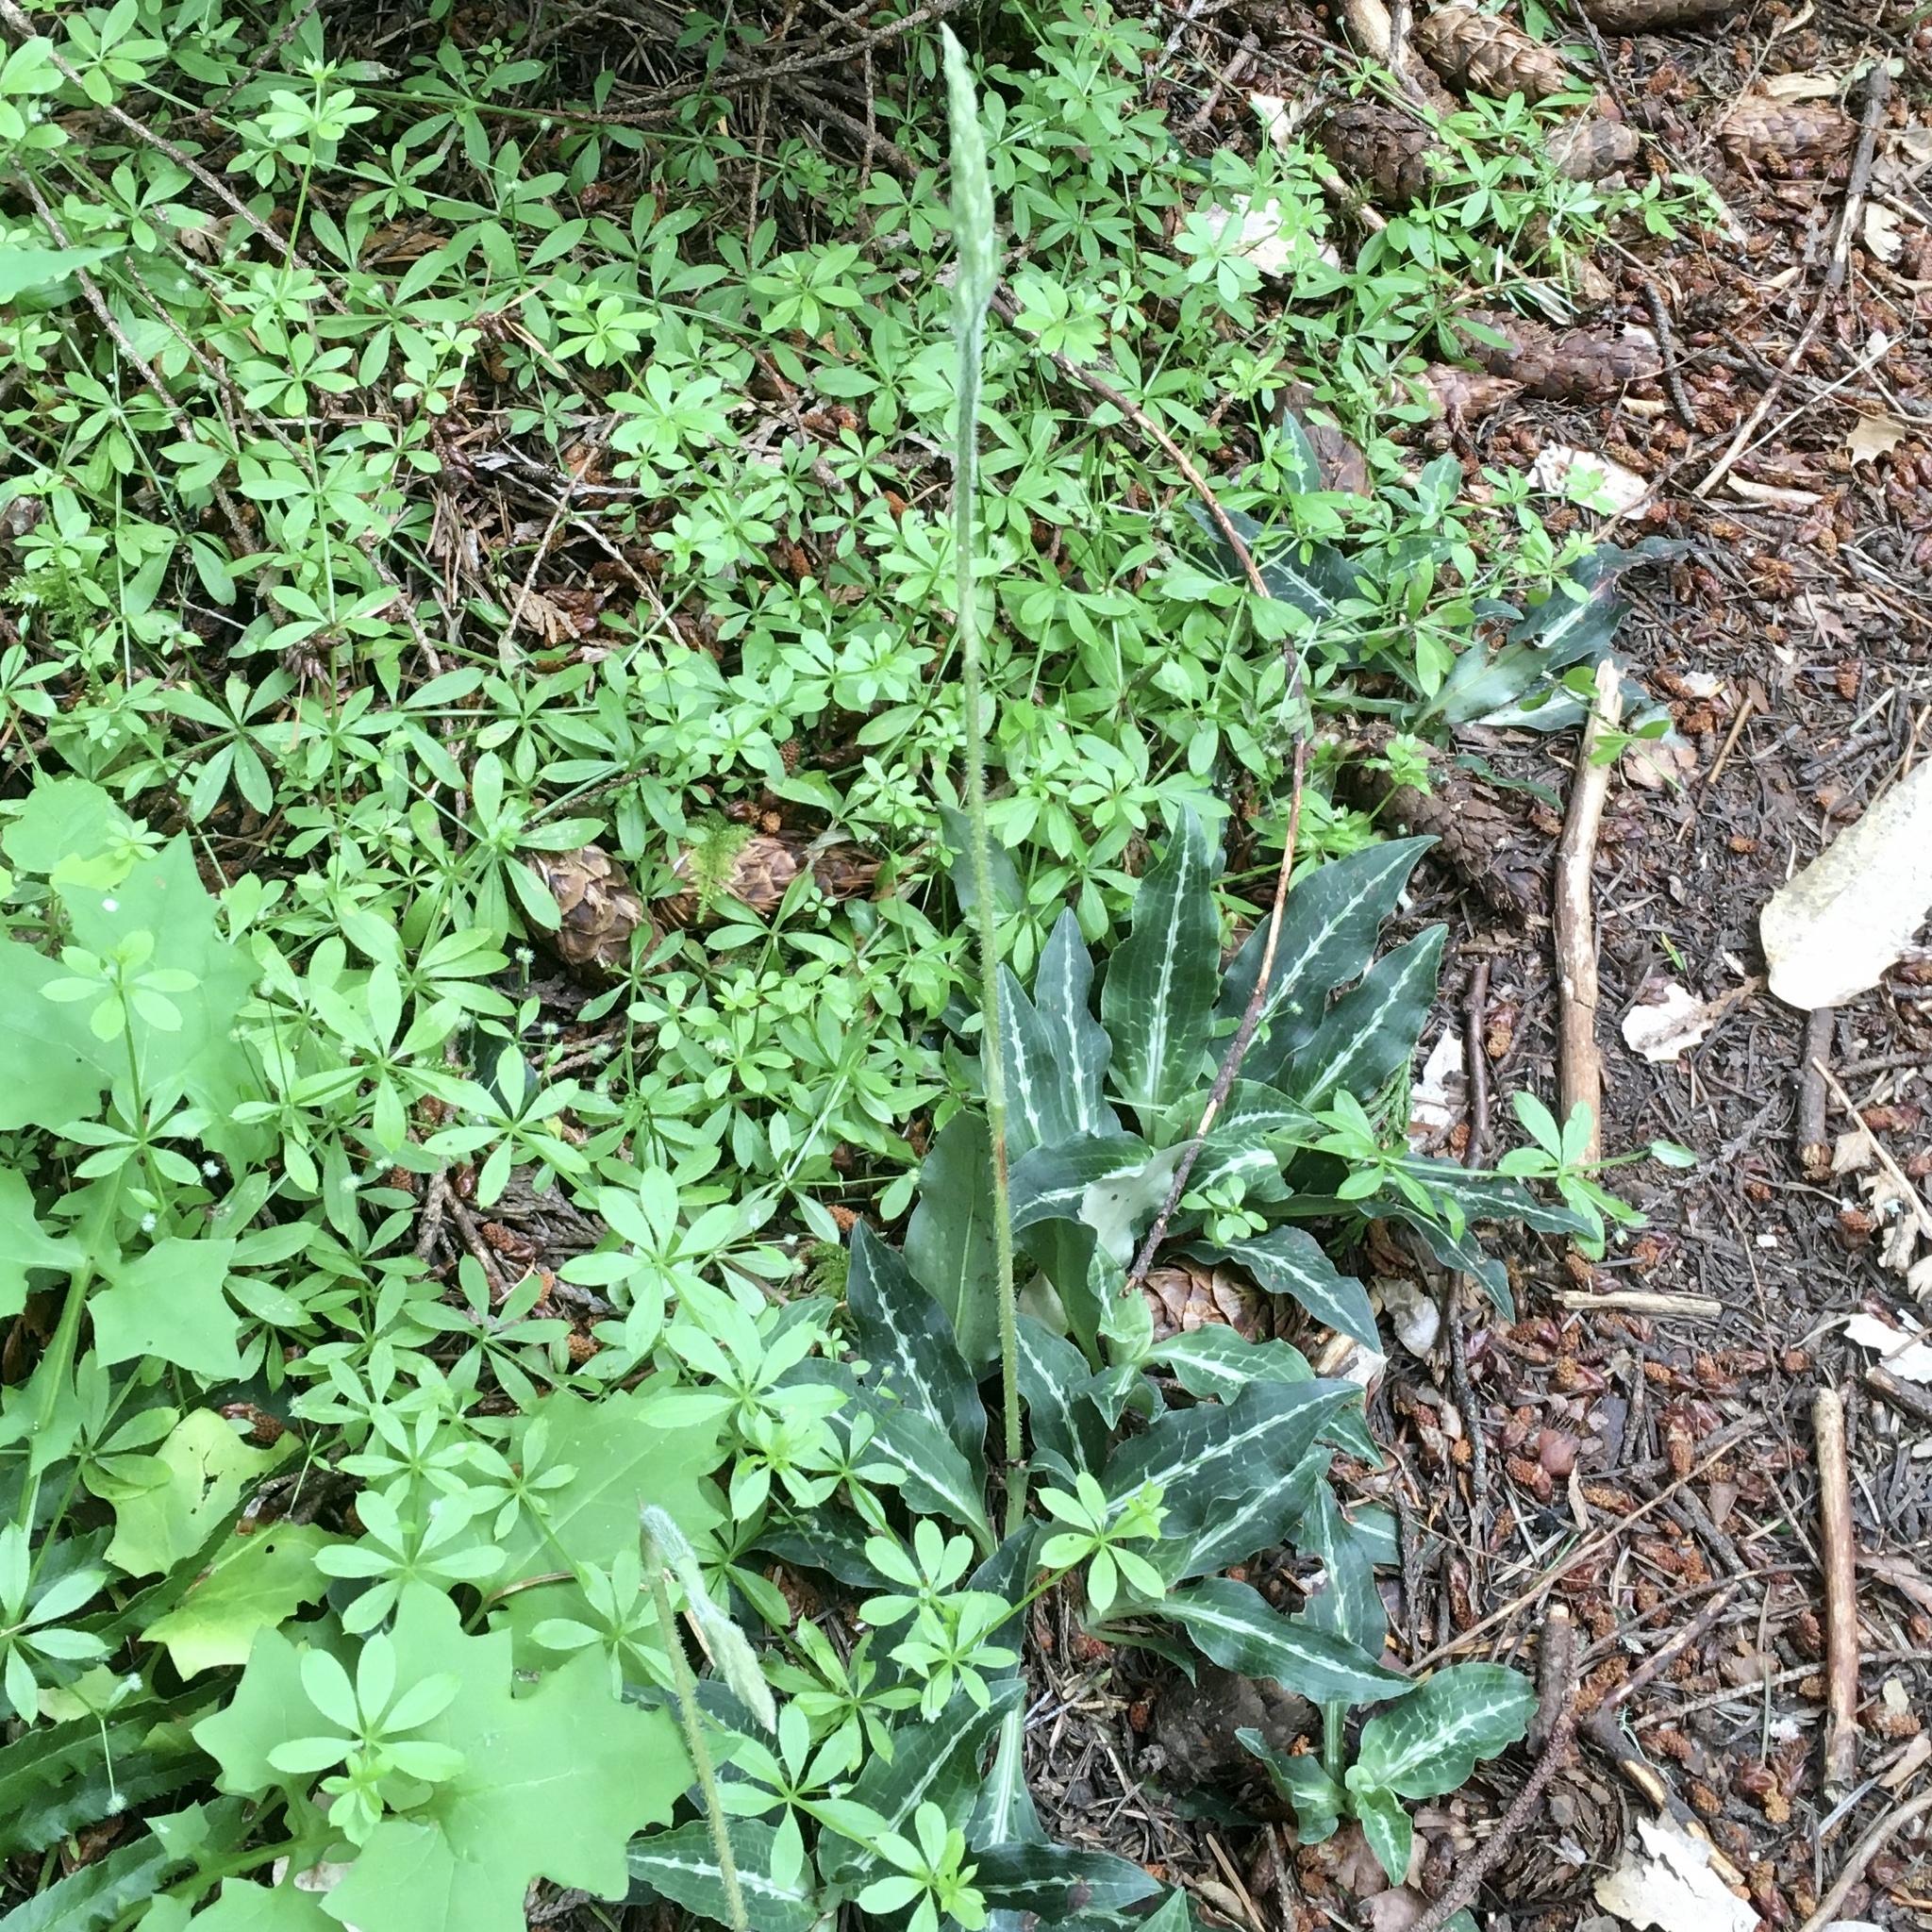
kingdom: Plantae
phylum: Tracheophyta
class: Liliopsida
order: Asparagales
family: Orchidaceae
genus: Goodyera
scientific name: Goodyera oblongifolia
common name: Giant rattlesnake-plantain
